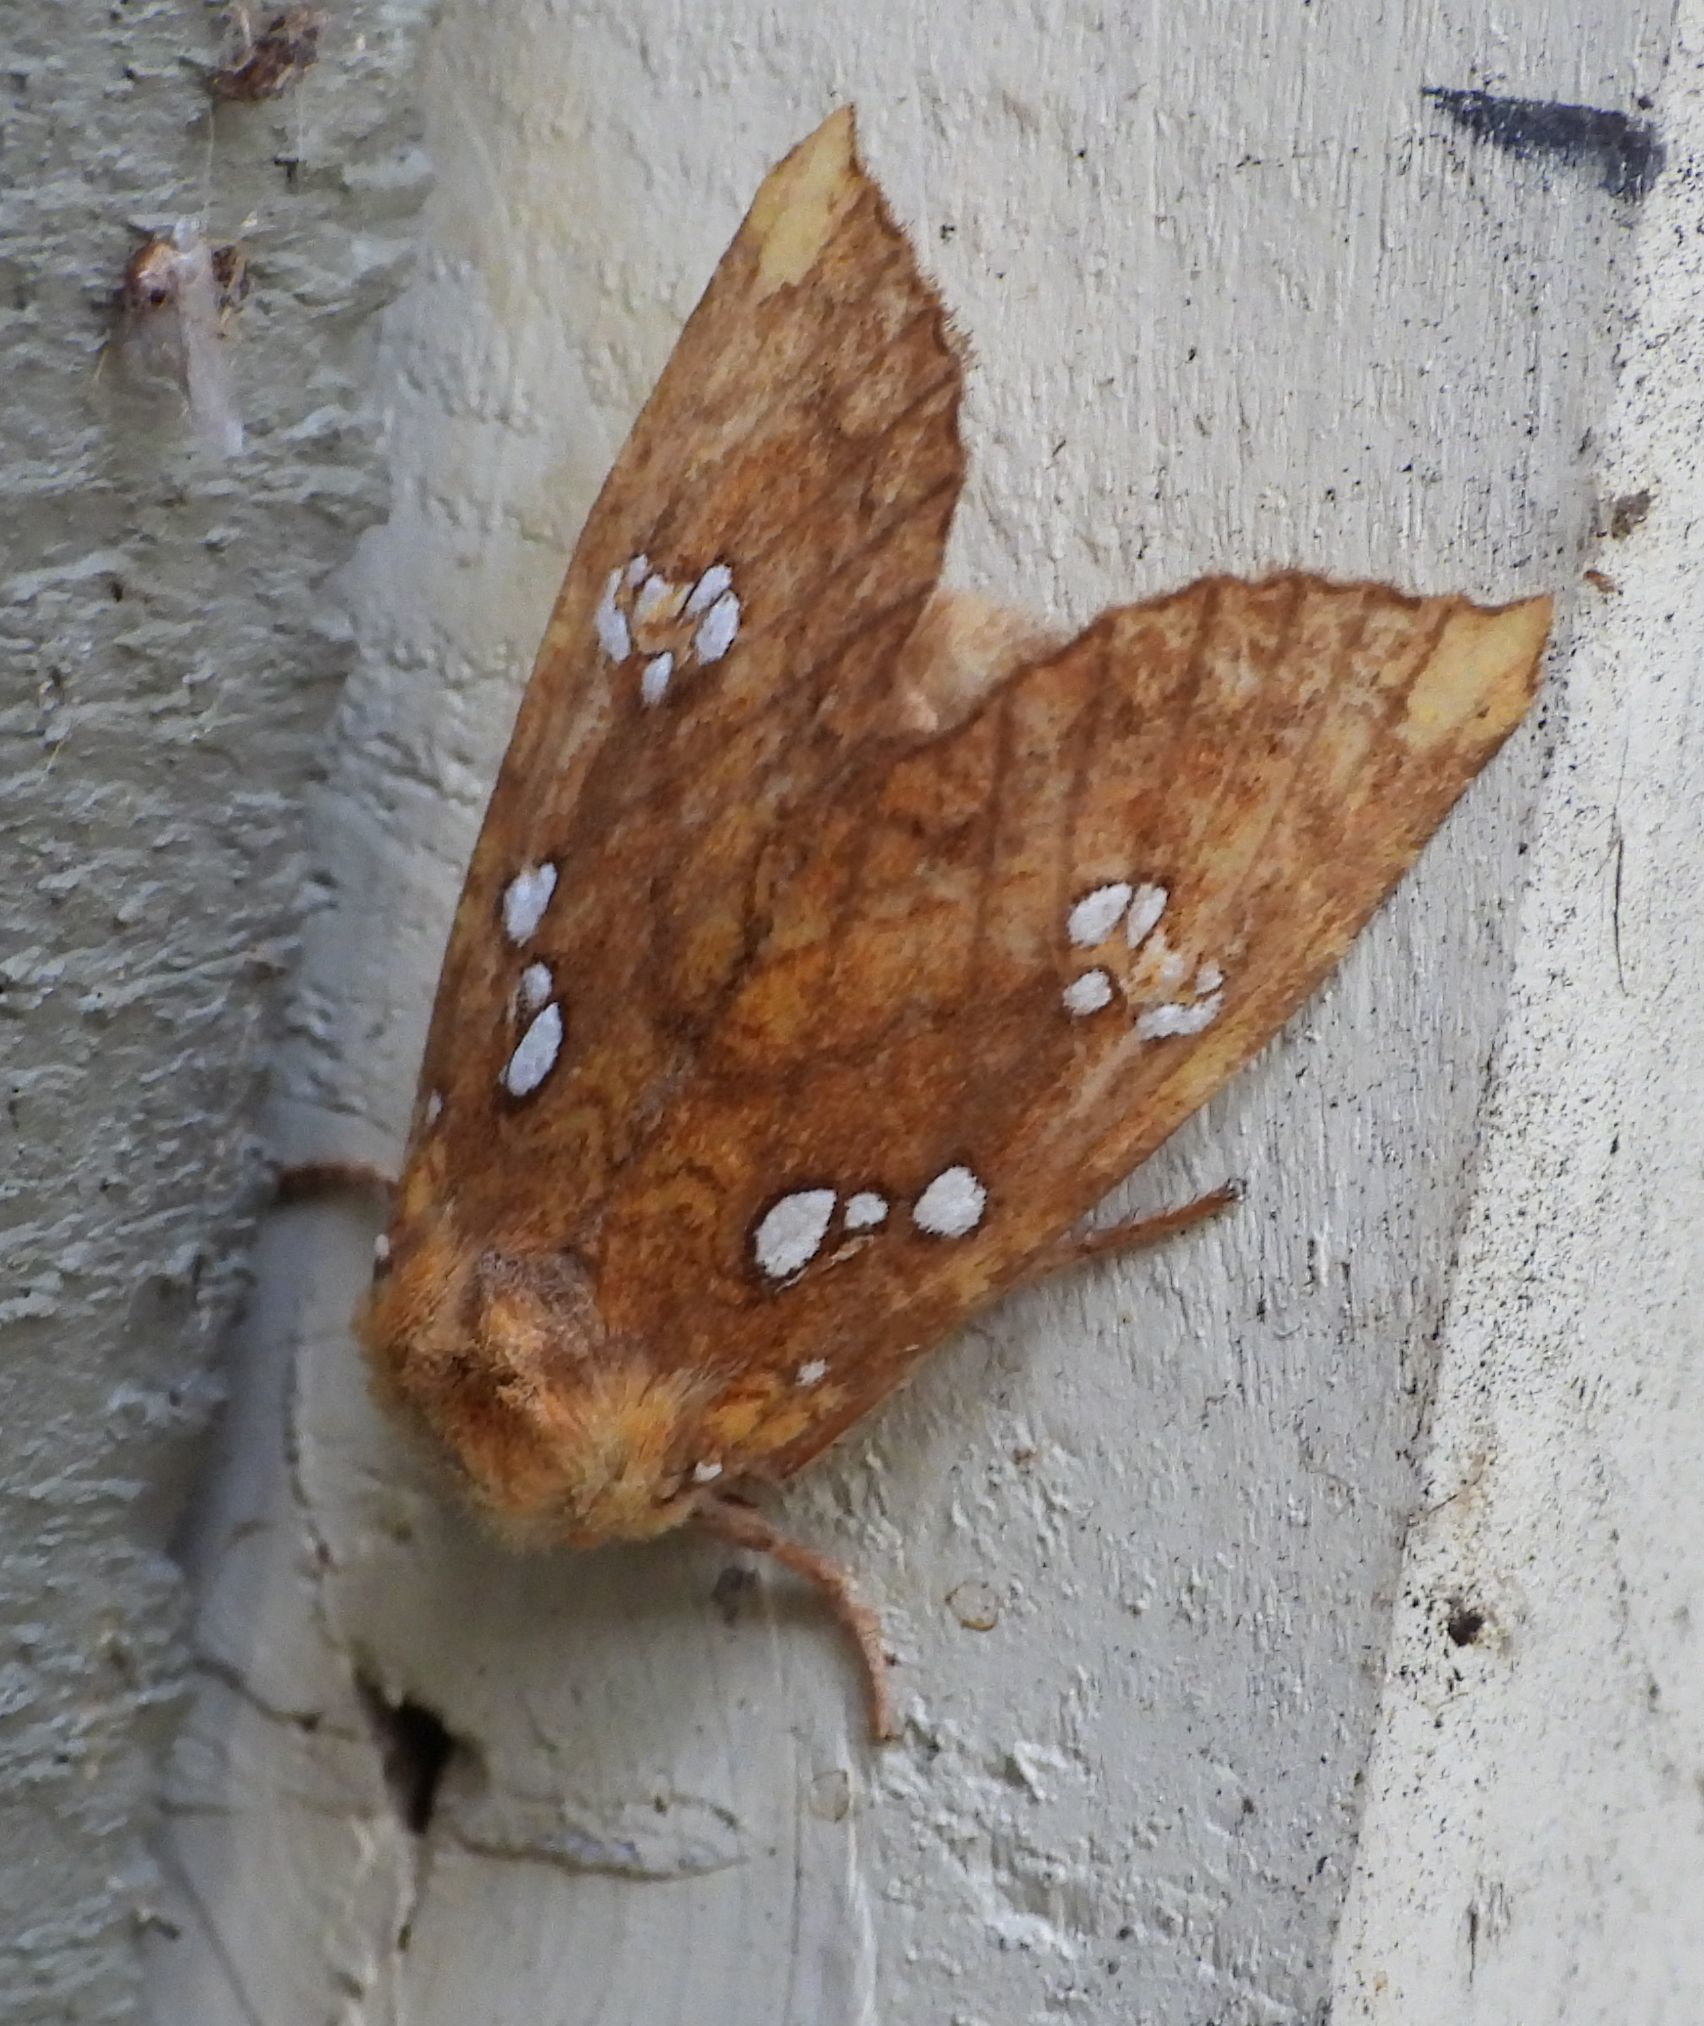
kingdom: Animalia
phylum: Arthropoda
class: Insecta
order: Lepidoptera
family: Noctuidae
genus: Papaipema
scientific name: Papaipema furcata
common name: Ash tip borer moth
